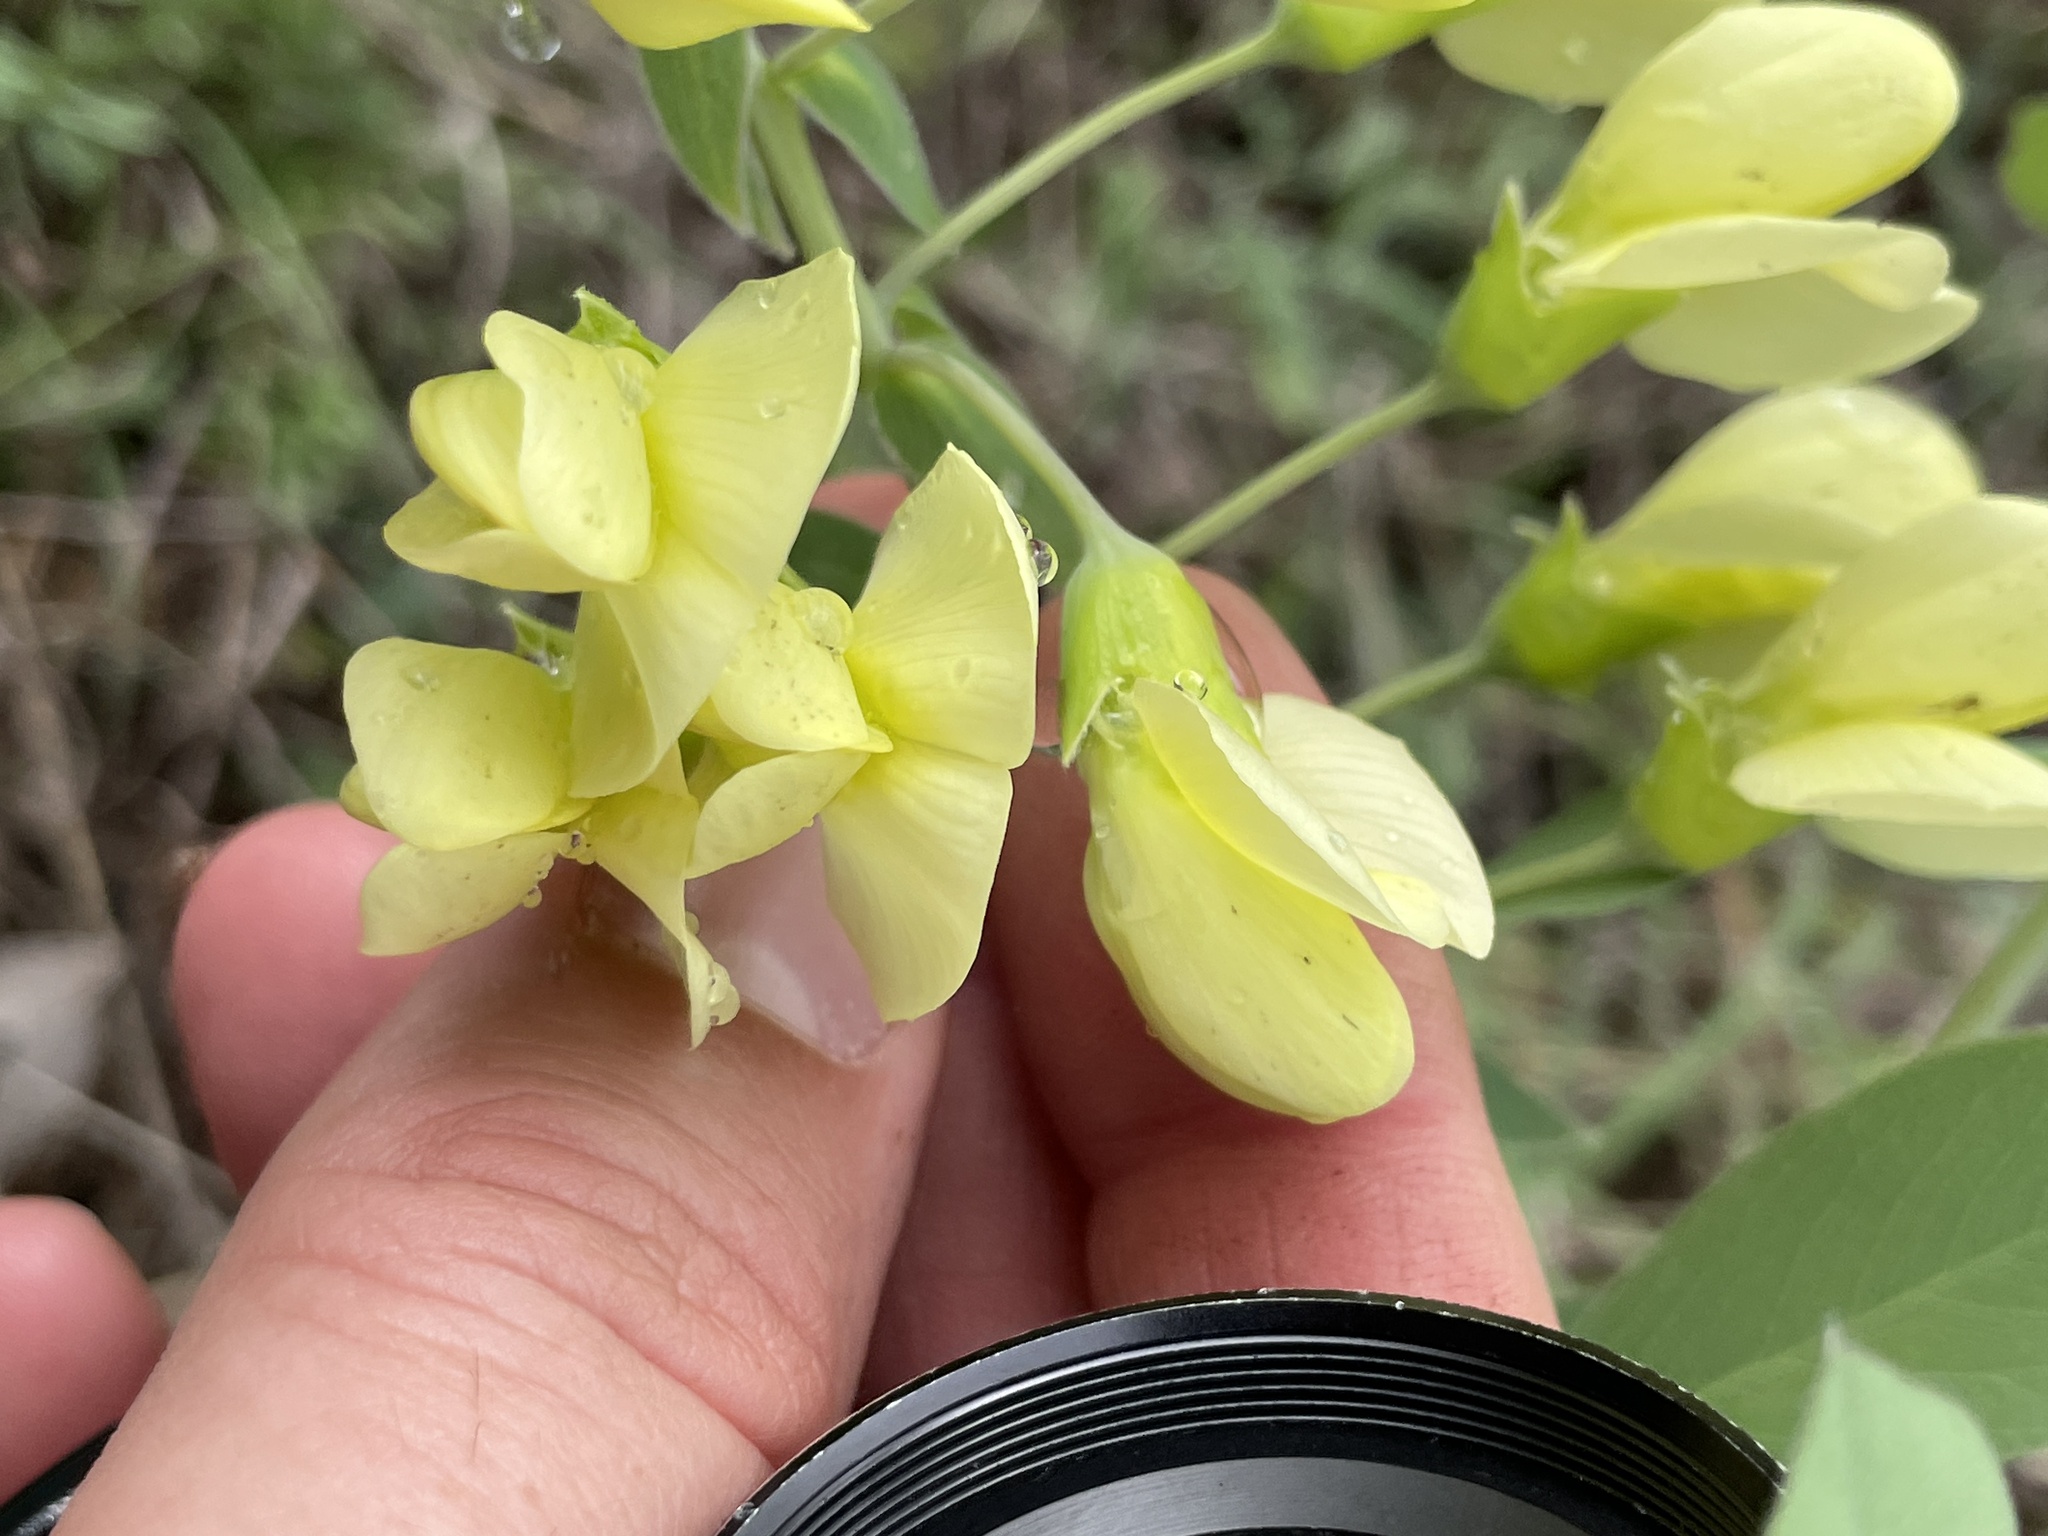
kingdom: Plantae
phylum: Tracheophyta
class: Magnoliopsida
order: Fabales
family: Fabaceae
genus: Baptisia
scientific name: Baptisia bracteata
